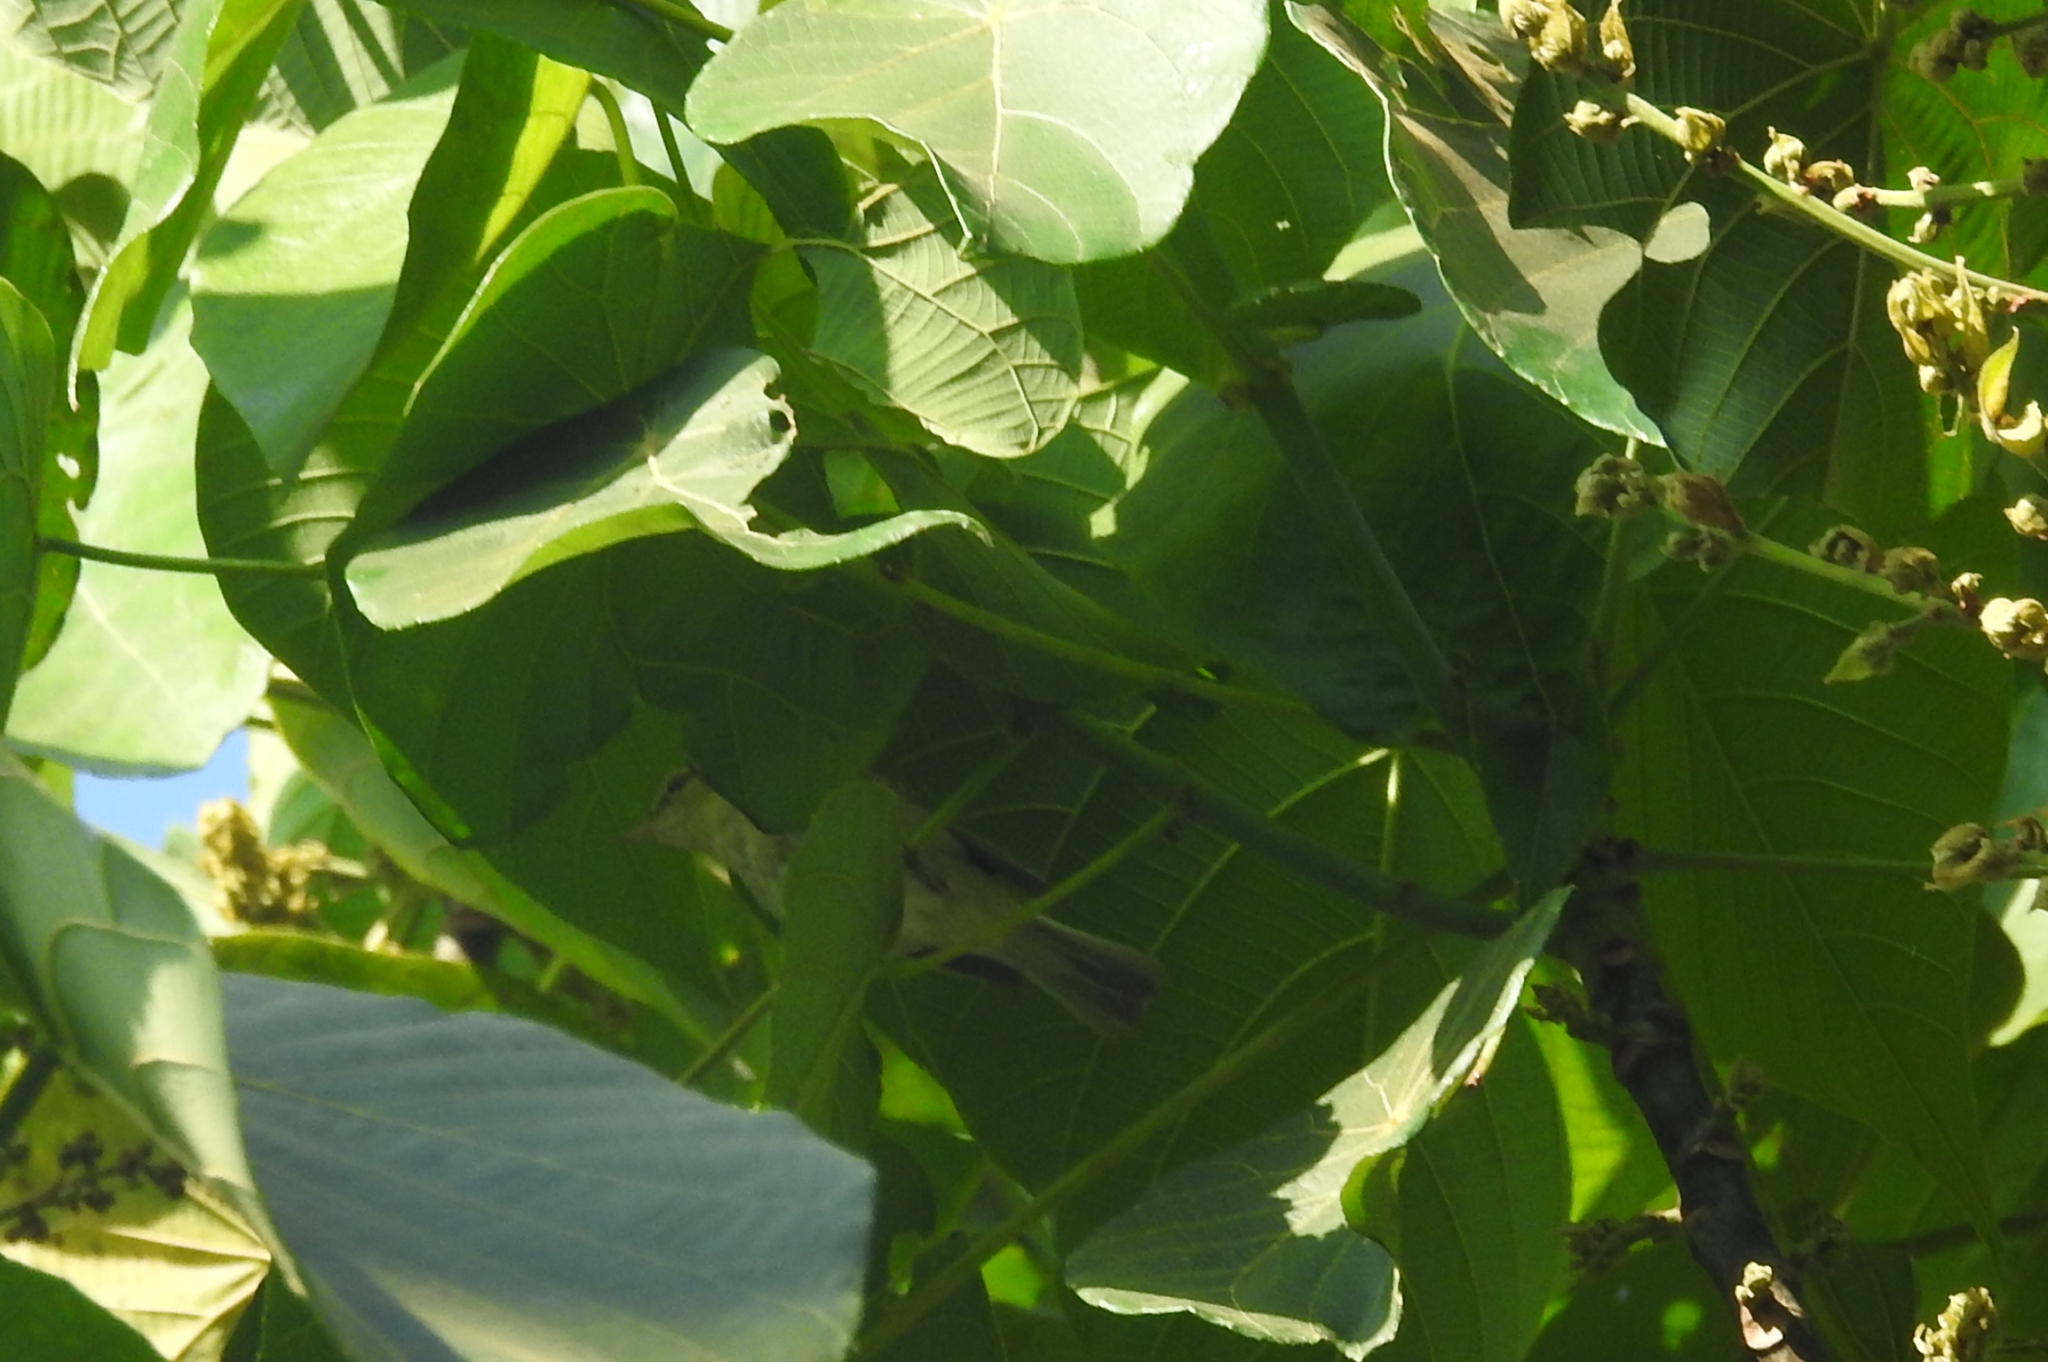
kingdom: Animalia
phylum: Chordata
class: Aves
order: Passeriformes
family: Phylloscopidae
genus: Phylloscopus
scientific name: Phylloscopus nitidus
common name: Green warbler
